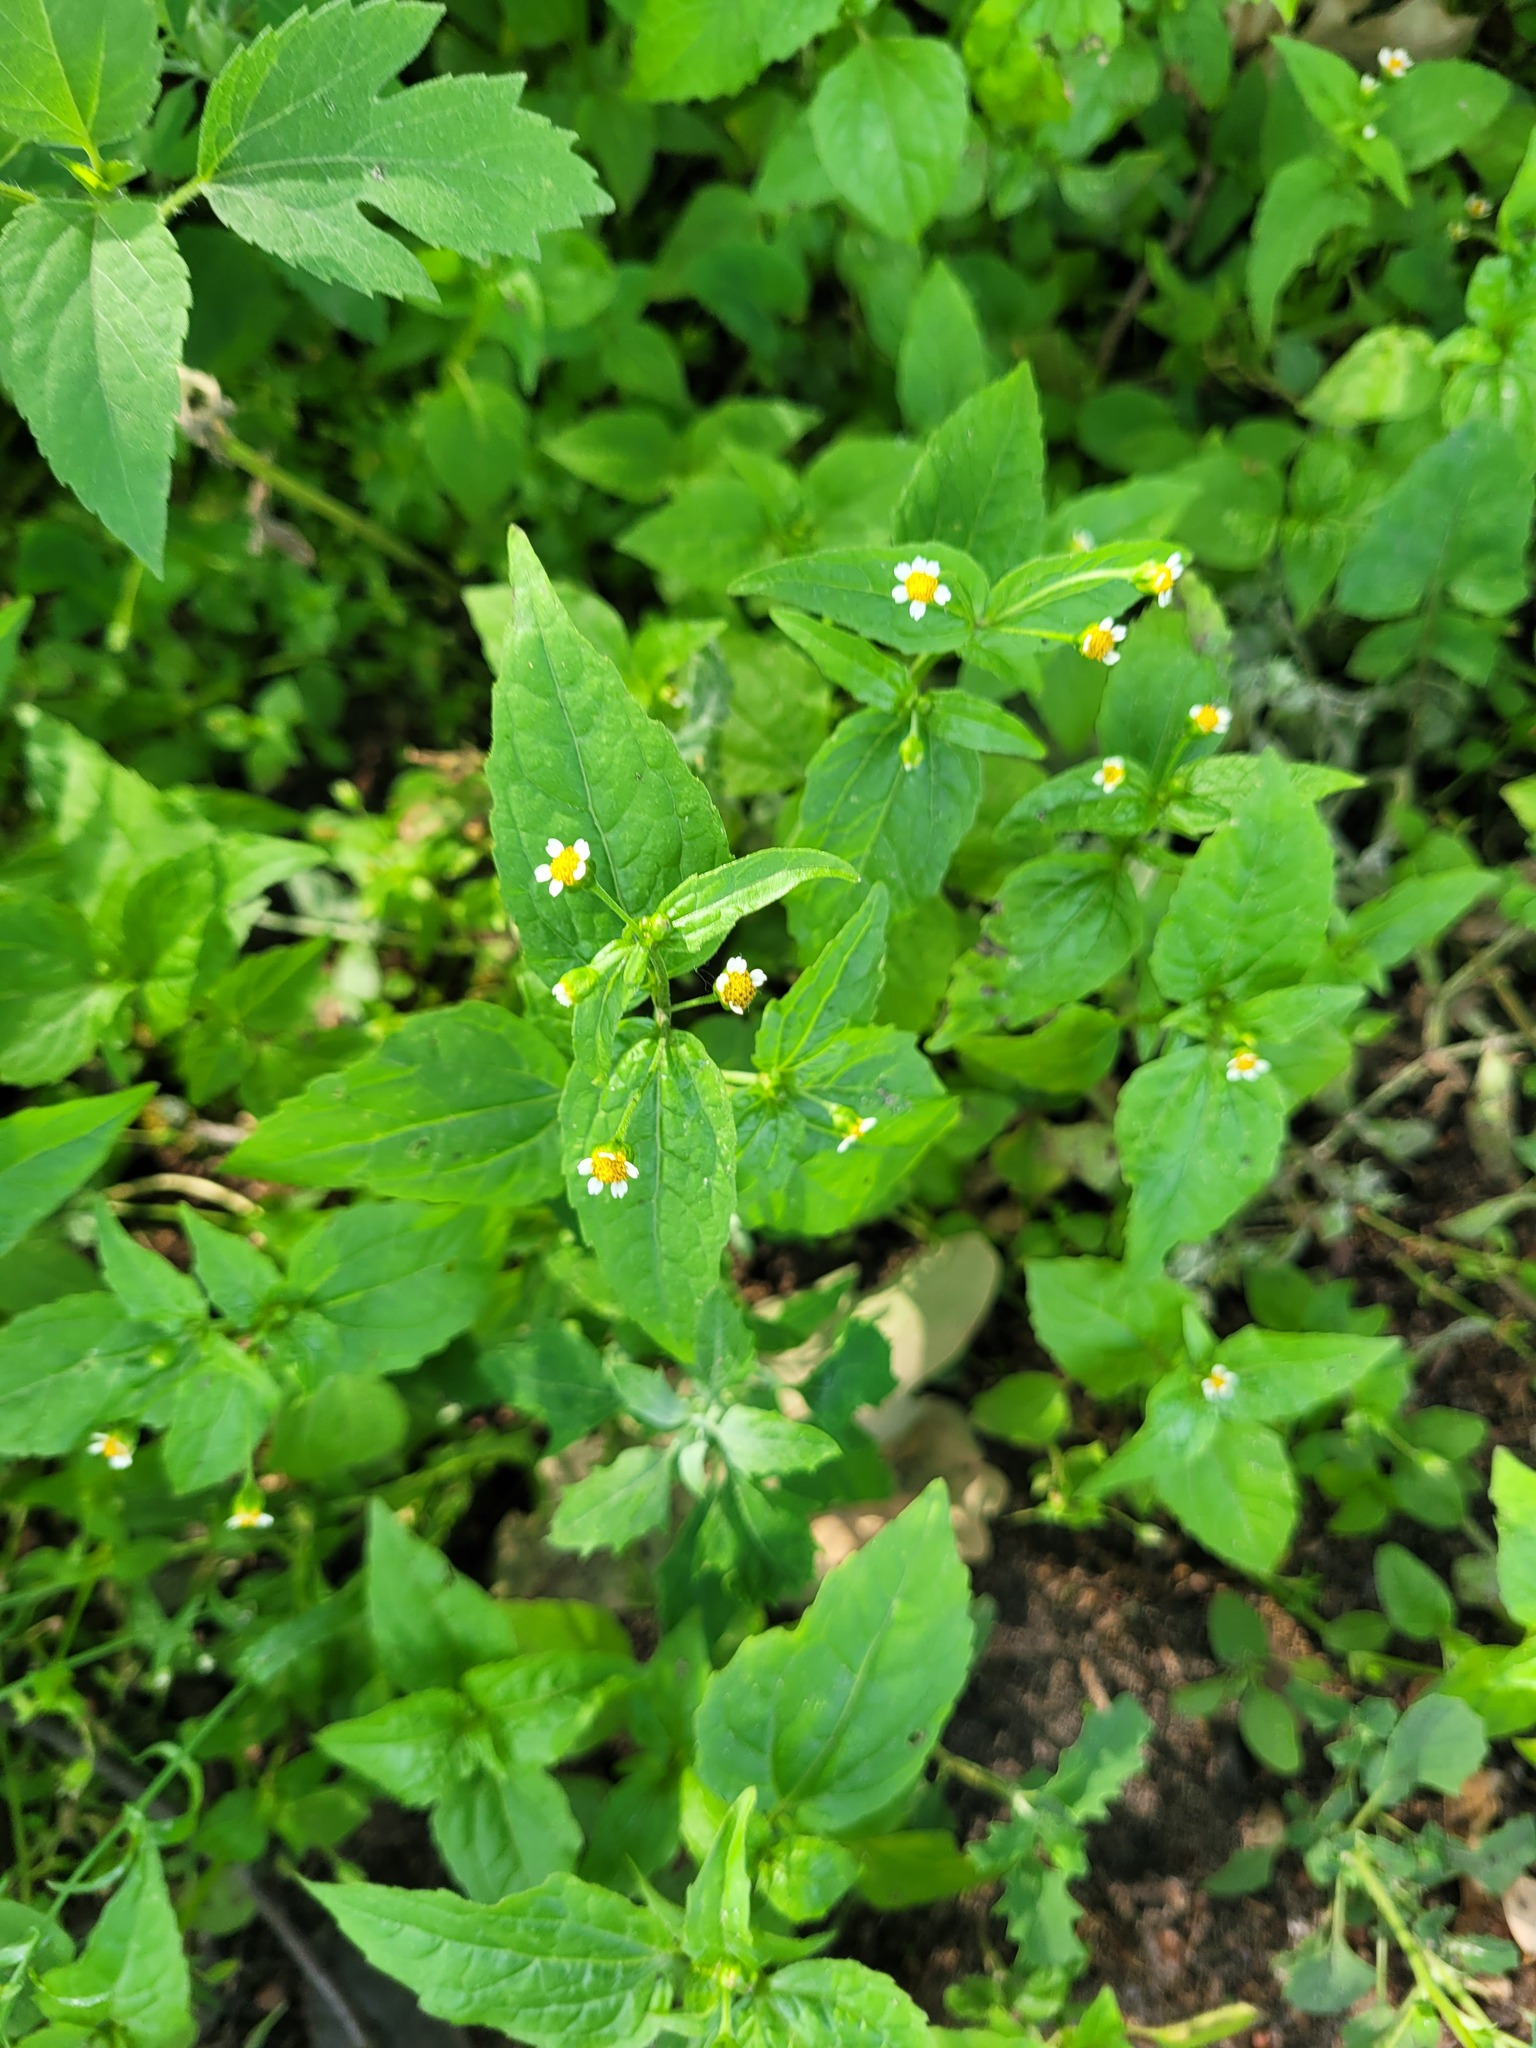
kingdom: Plantae
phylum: Tracheophyta
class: Magnoliopsida
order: Asterales
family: Asteraceae
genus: Galinsoga
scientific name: Galinsoga parviflora
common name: Gallant soldier
